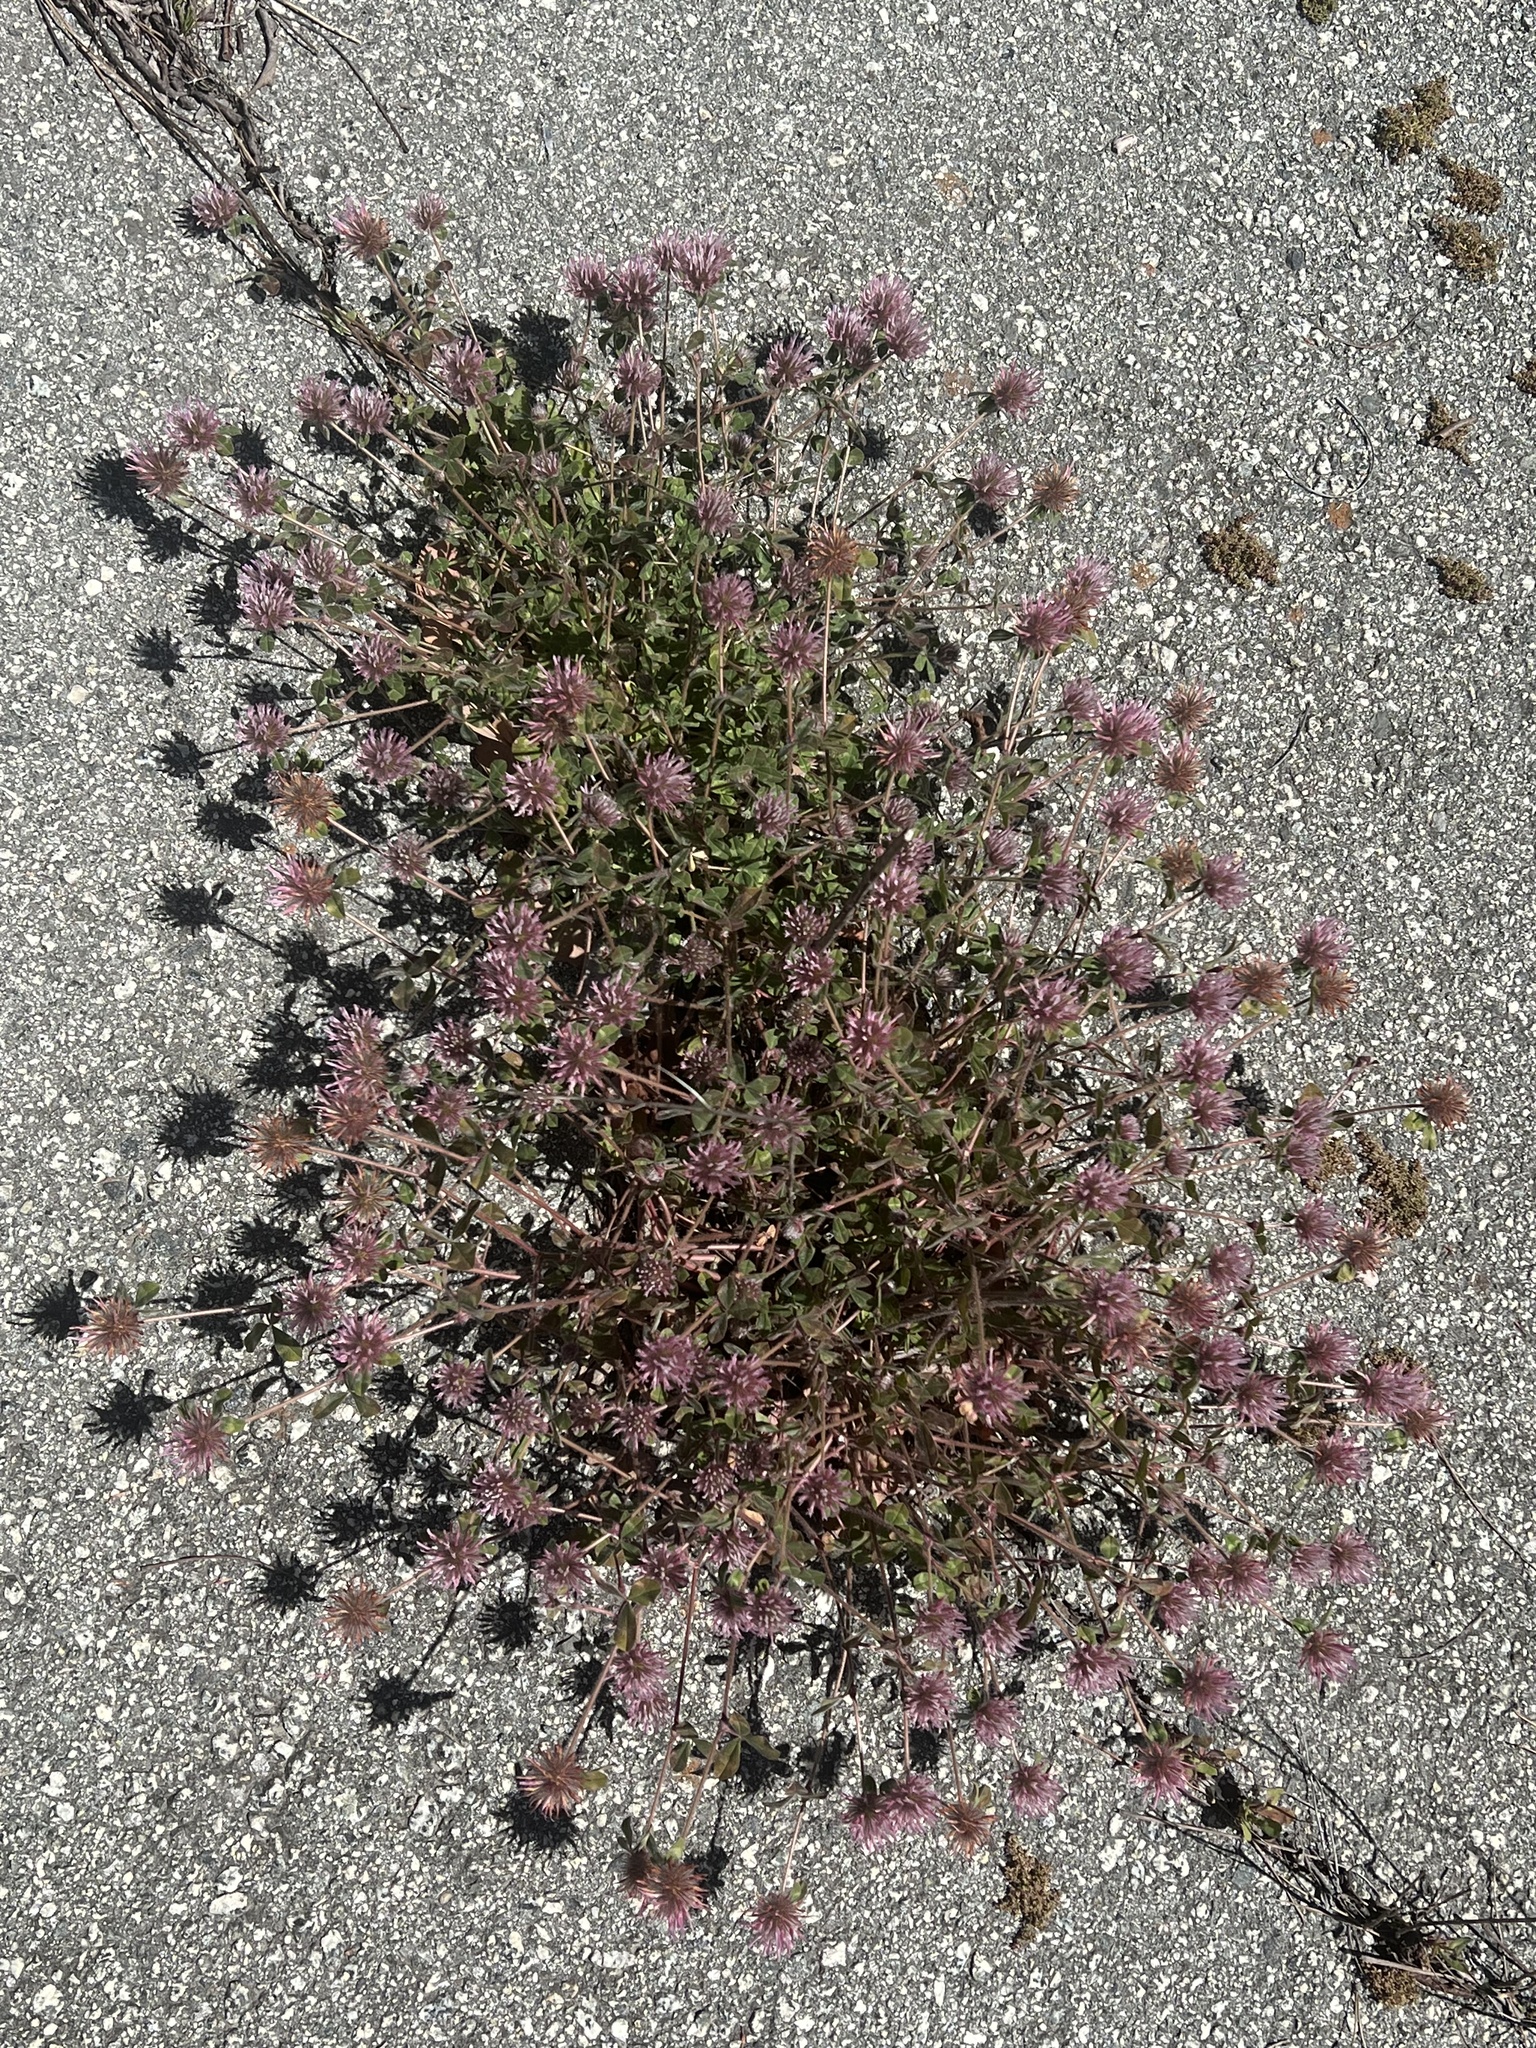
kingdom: Plantae
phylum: Tracheophyta
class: Magnoliopsida
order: Fabales
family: Fabaceae
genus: Trifolium
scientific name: Trifolium hirtum
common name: Rose clover
